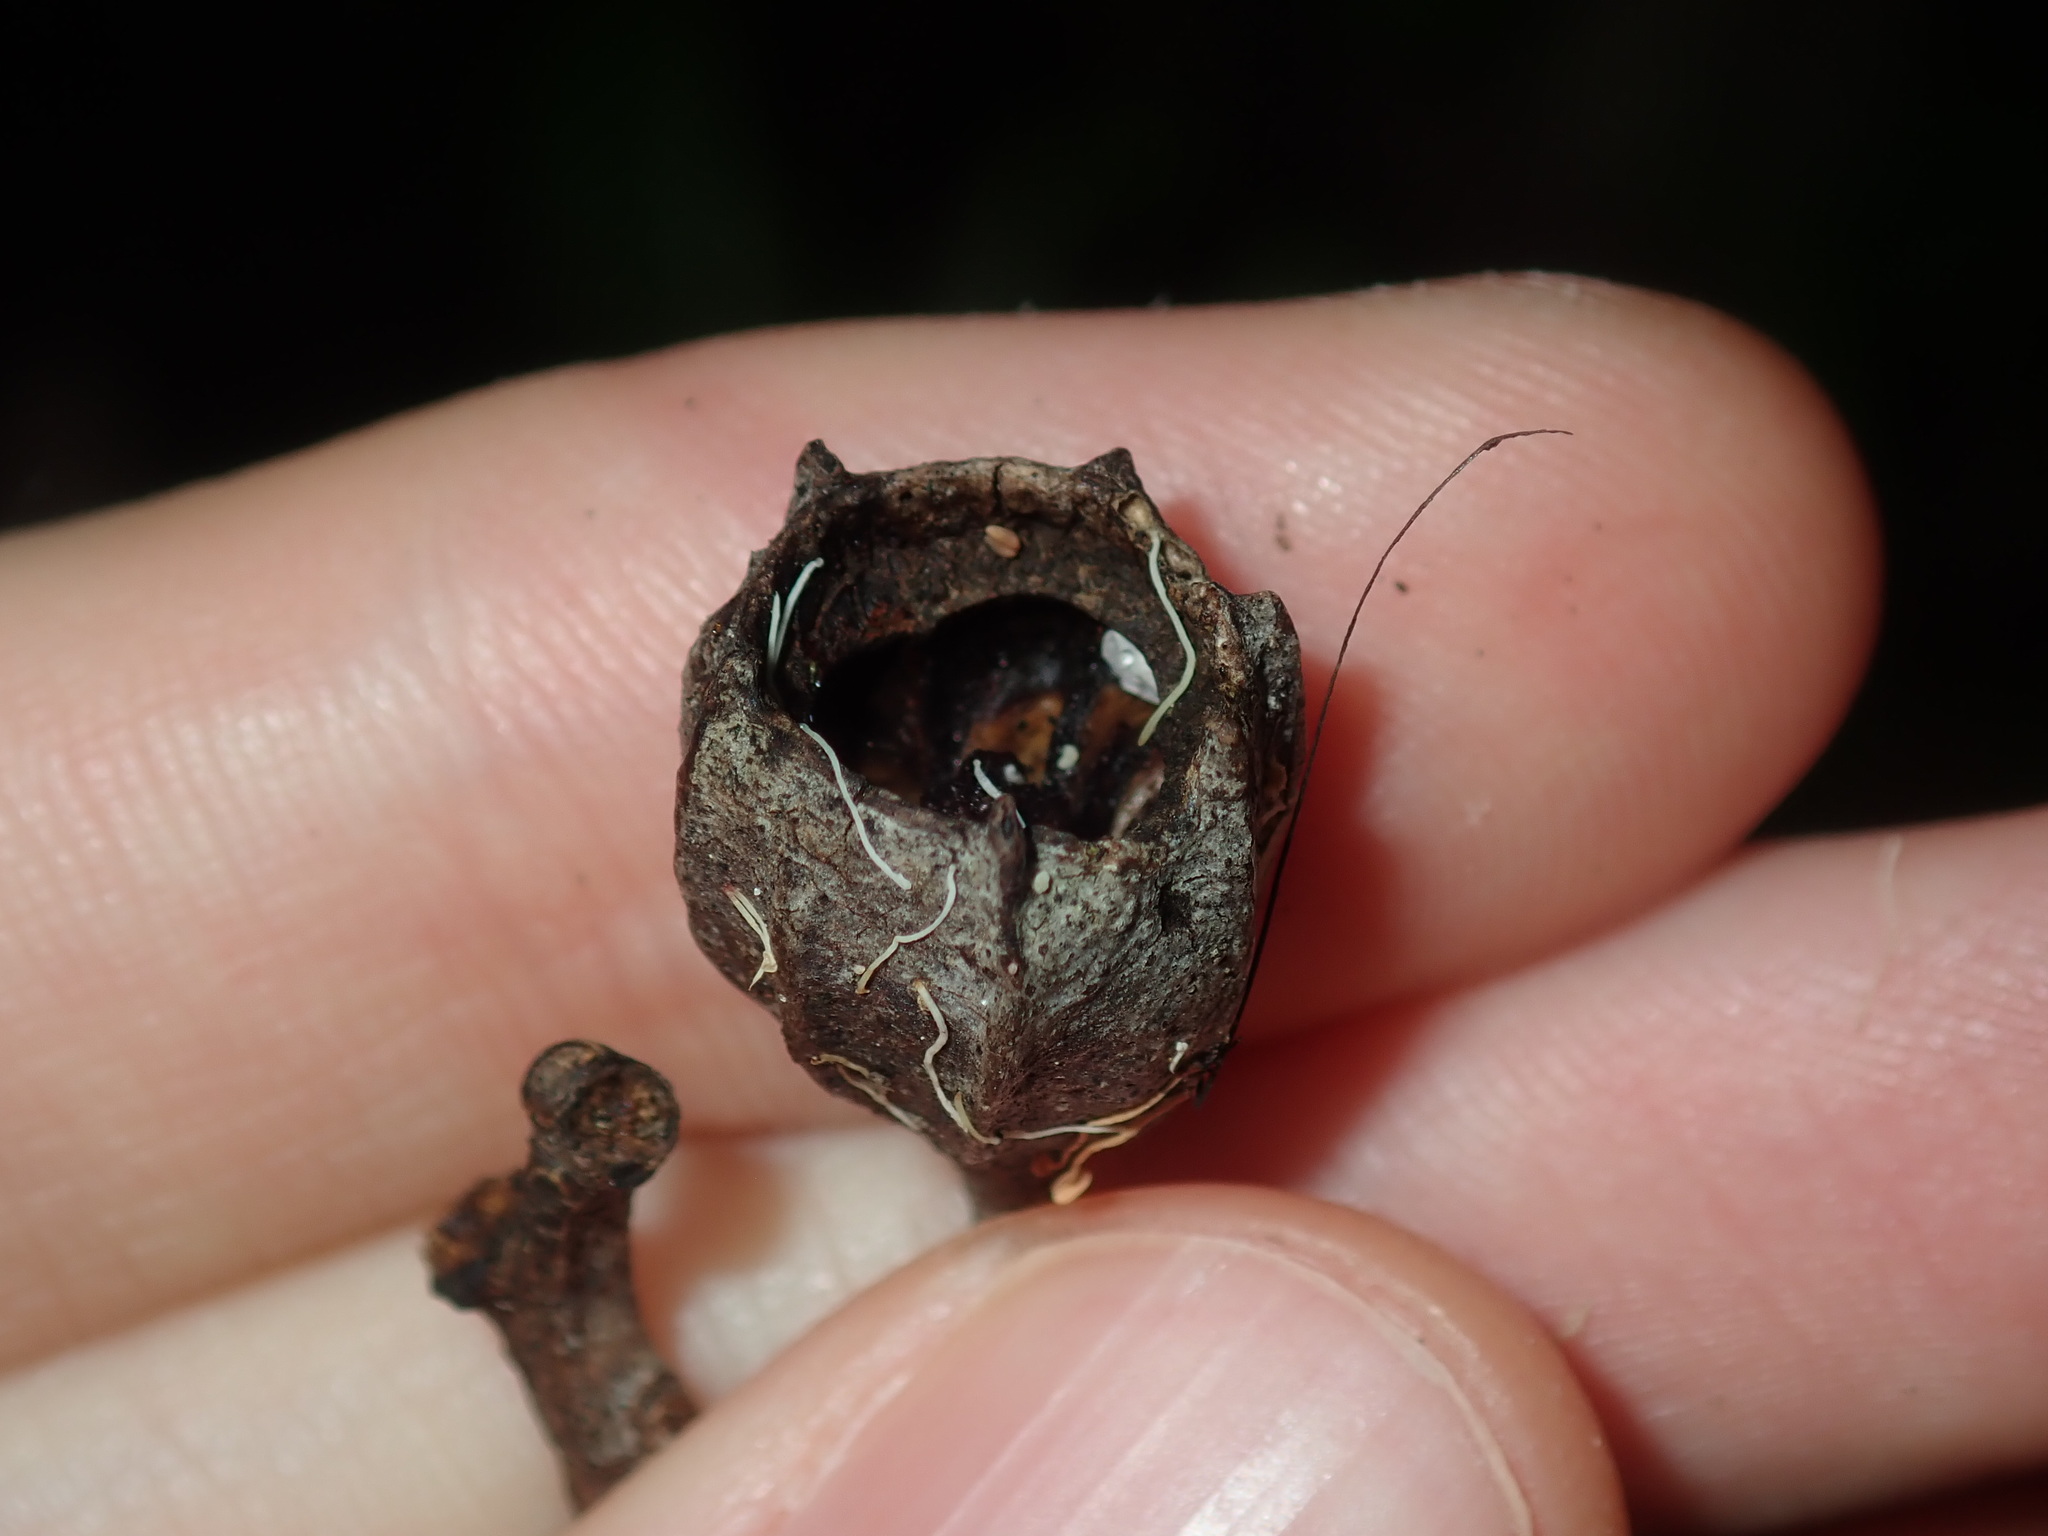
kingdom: Plantae
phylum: Tracheophyta
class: Magnoliopsida
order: Myrtales
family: Myrtaceae
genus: Angophora
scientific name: Angophora costata
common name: Gum myrtle
